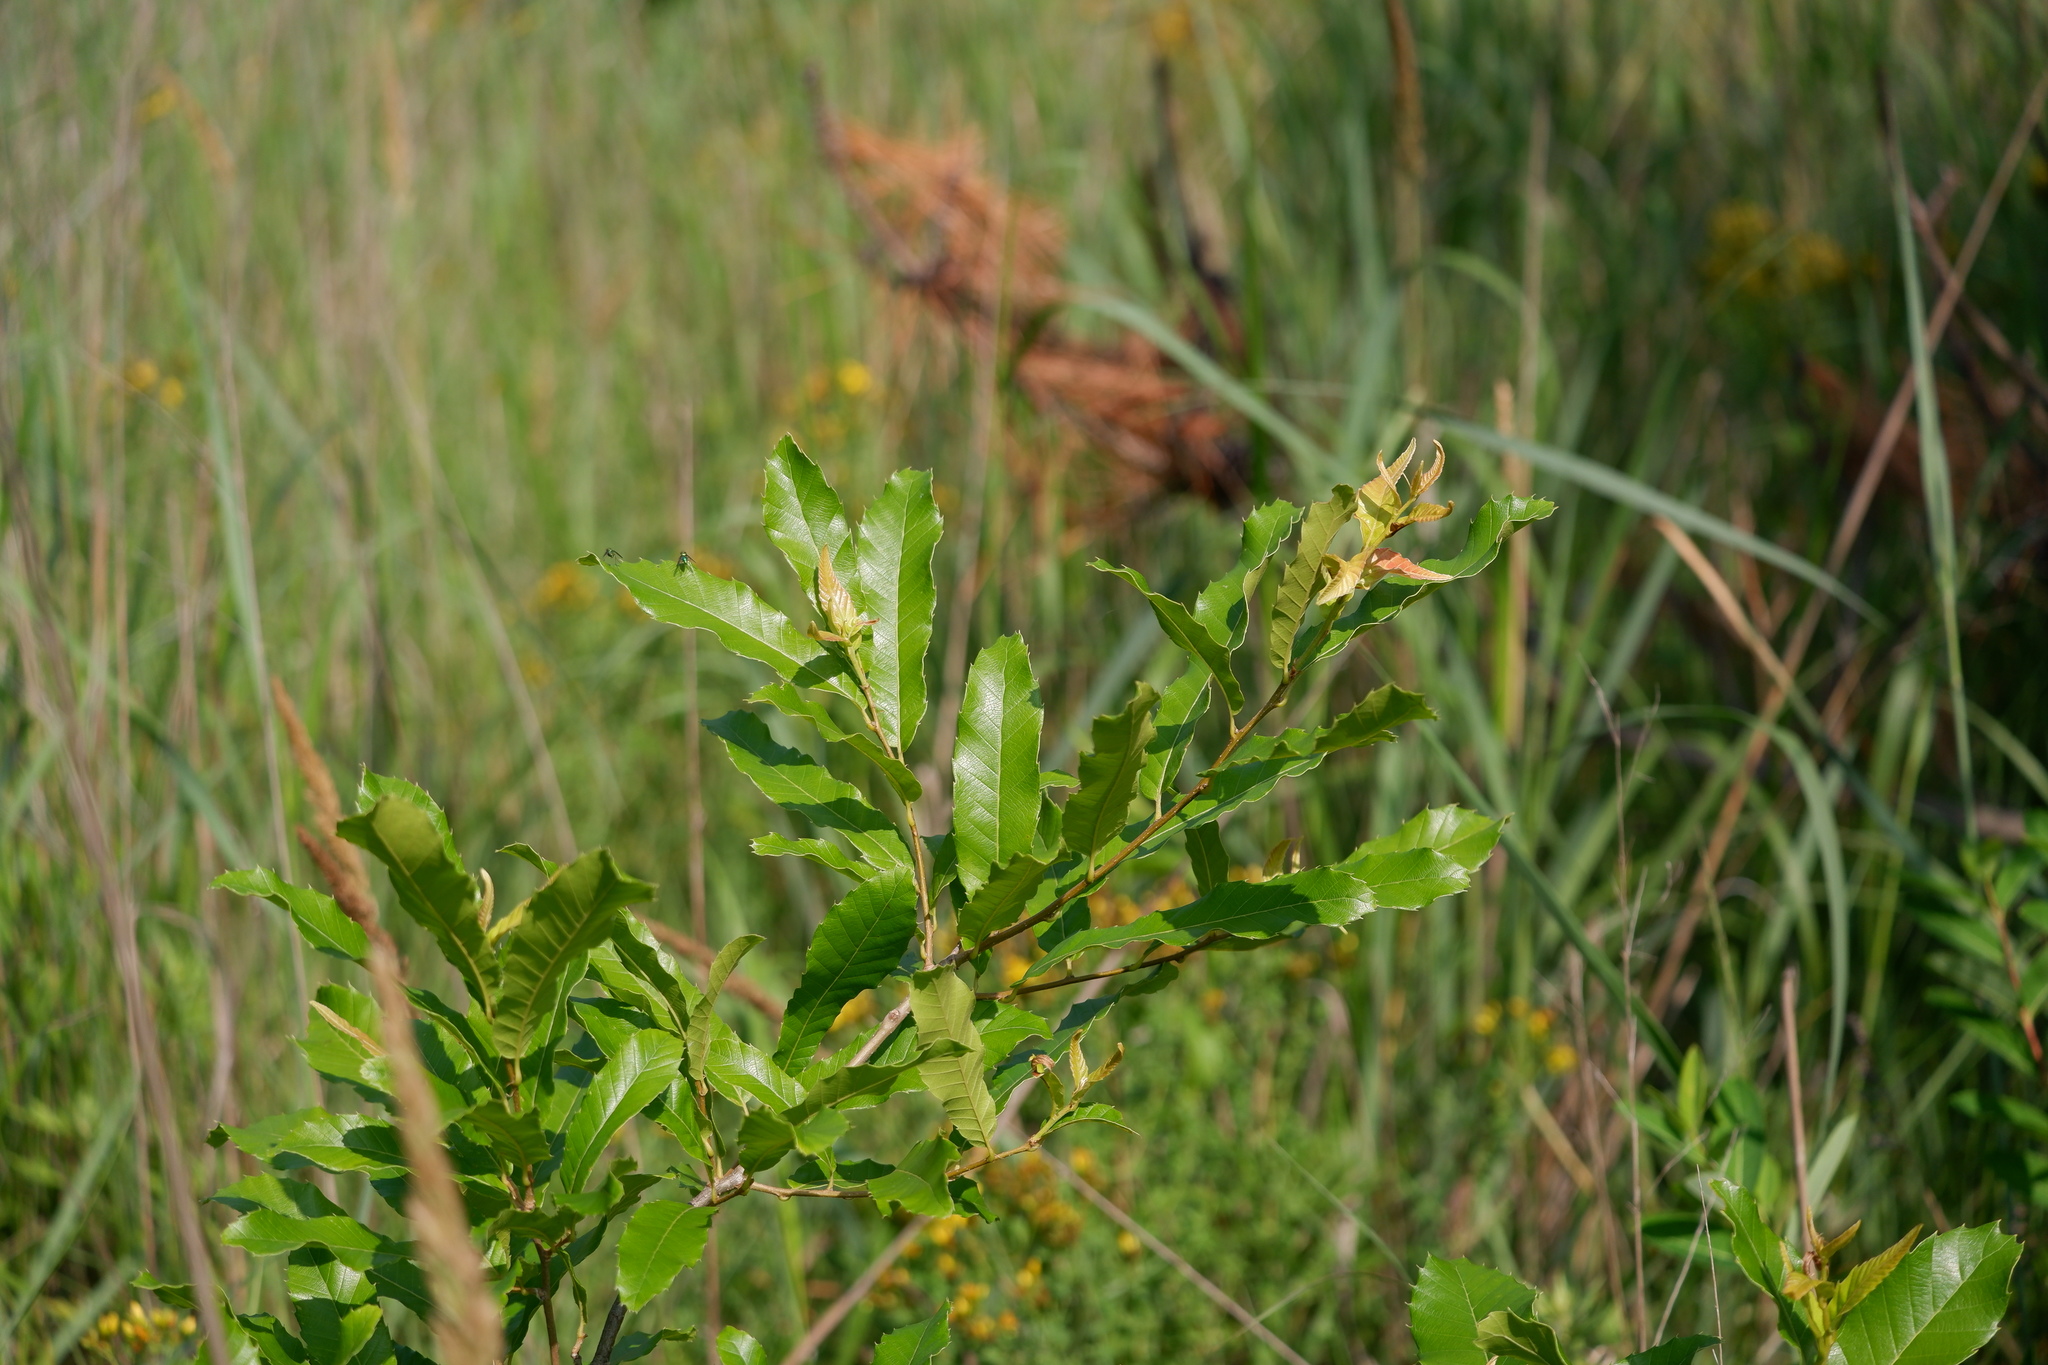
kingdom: Plantae
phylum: Tracheophyta
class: Magnoliopsida
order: Fagales
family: Fagaceae
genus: Quercus
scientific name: Quercus acutissima
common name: Sawtooth oak
